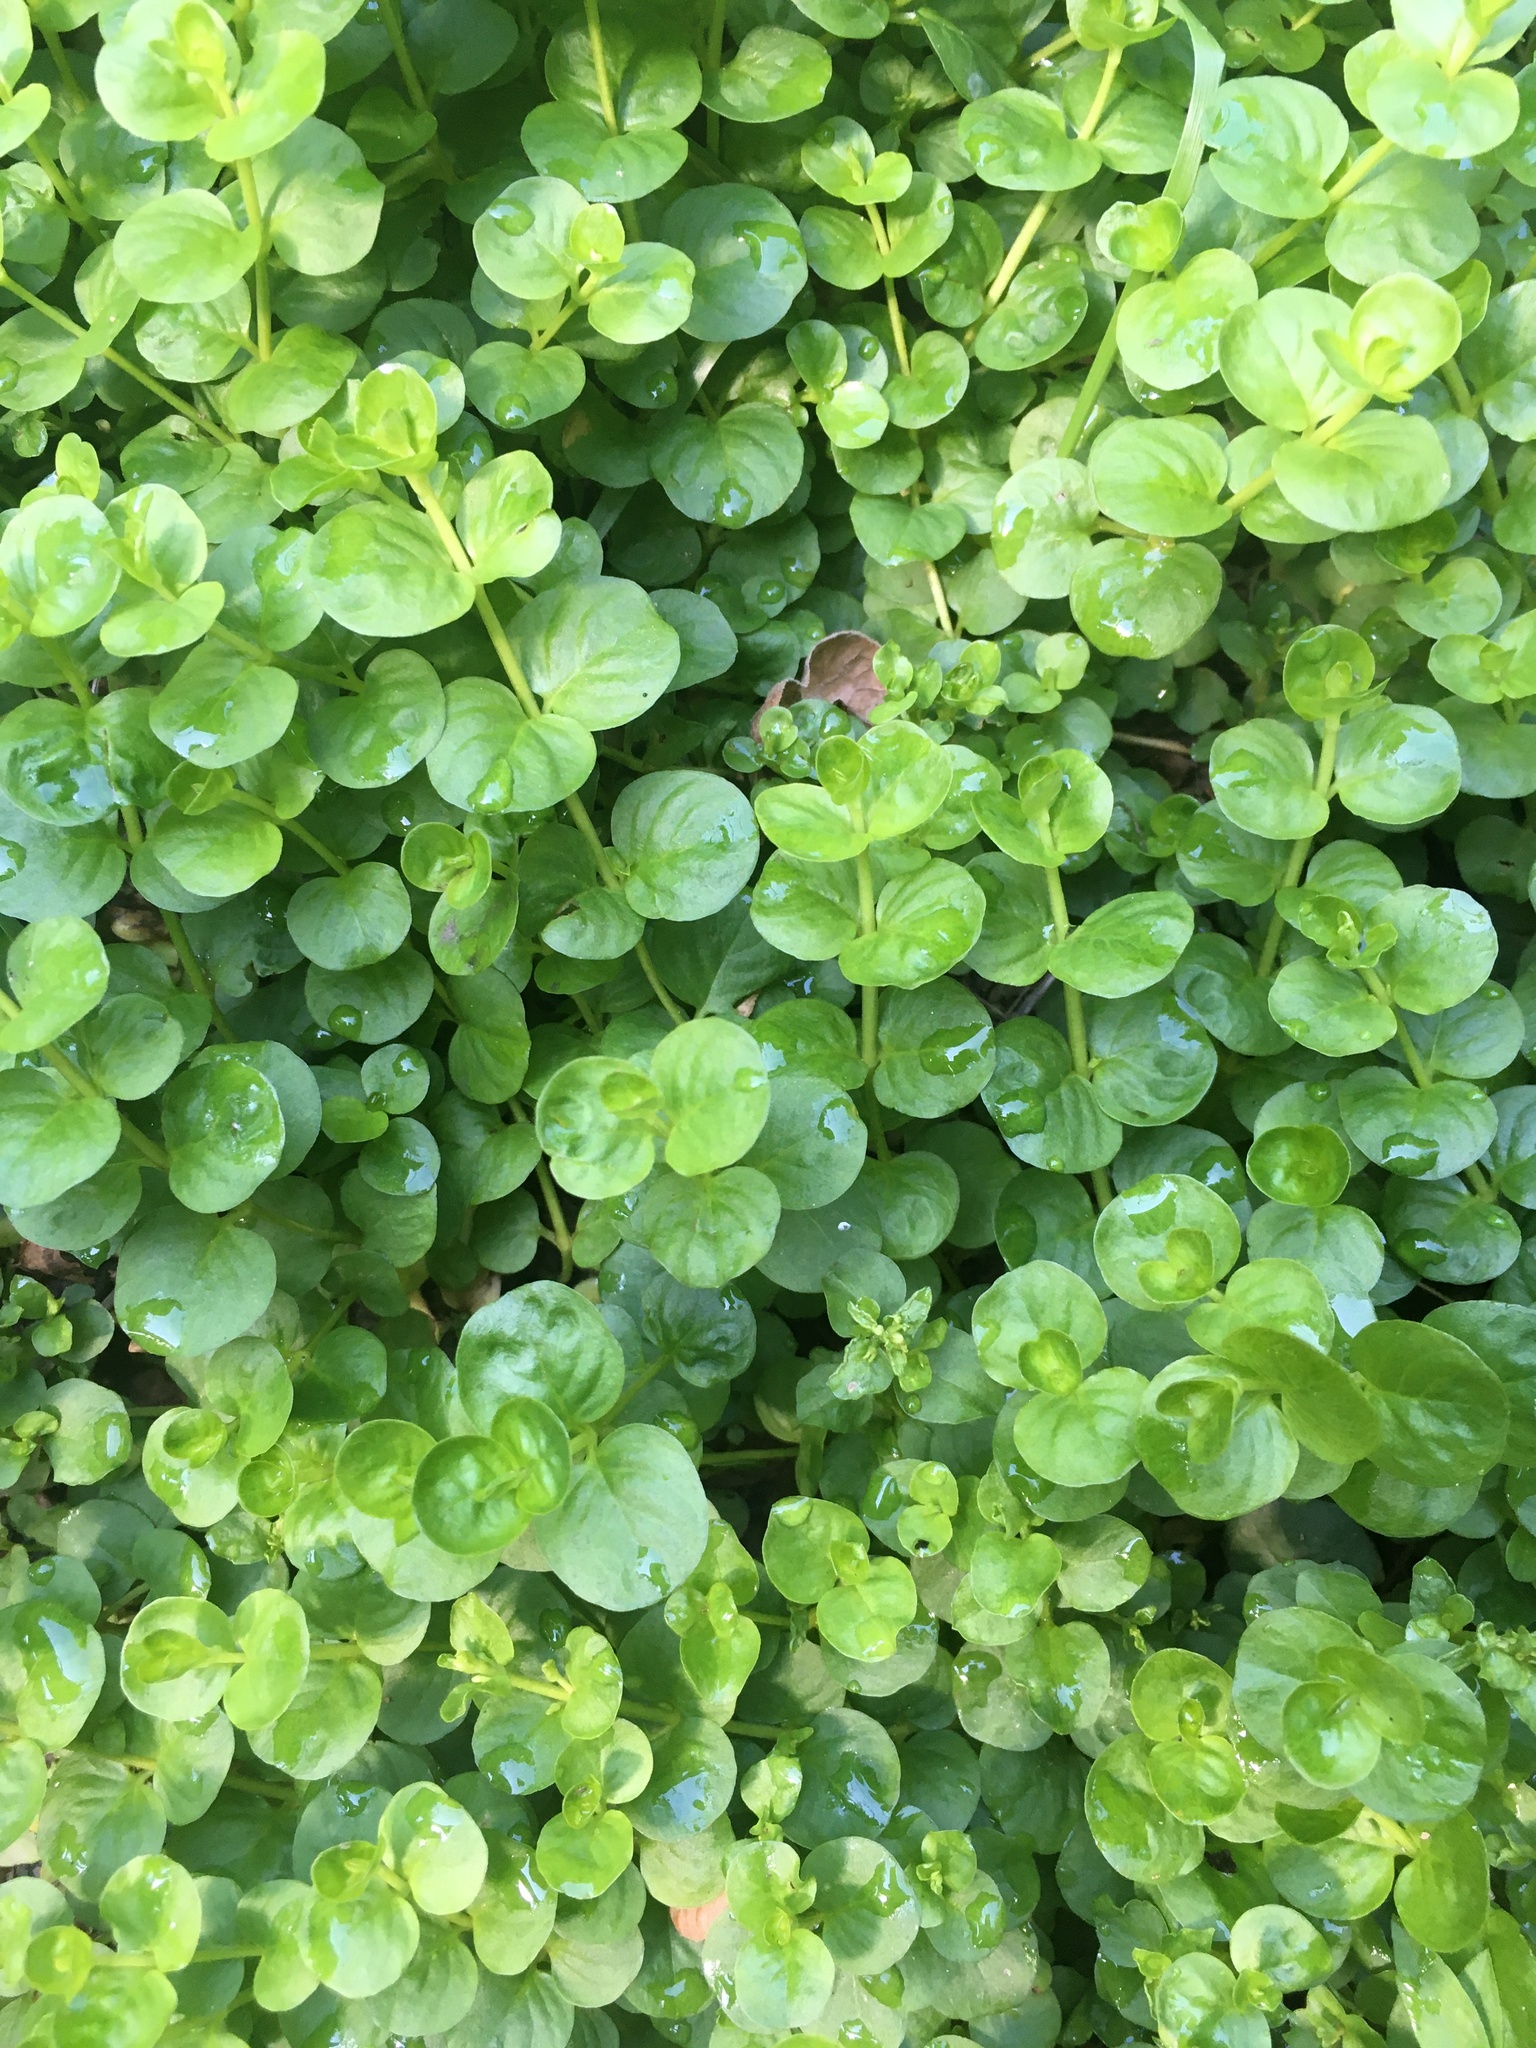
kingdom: Plantae
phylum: Tracheophyta
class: Magnoliopsida
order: Ericales
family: Primulaceae
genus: Lysimachia
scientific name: Lysimachia nummularia
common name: Moneywort
